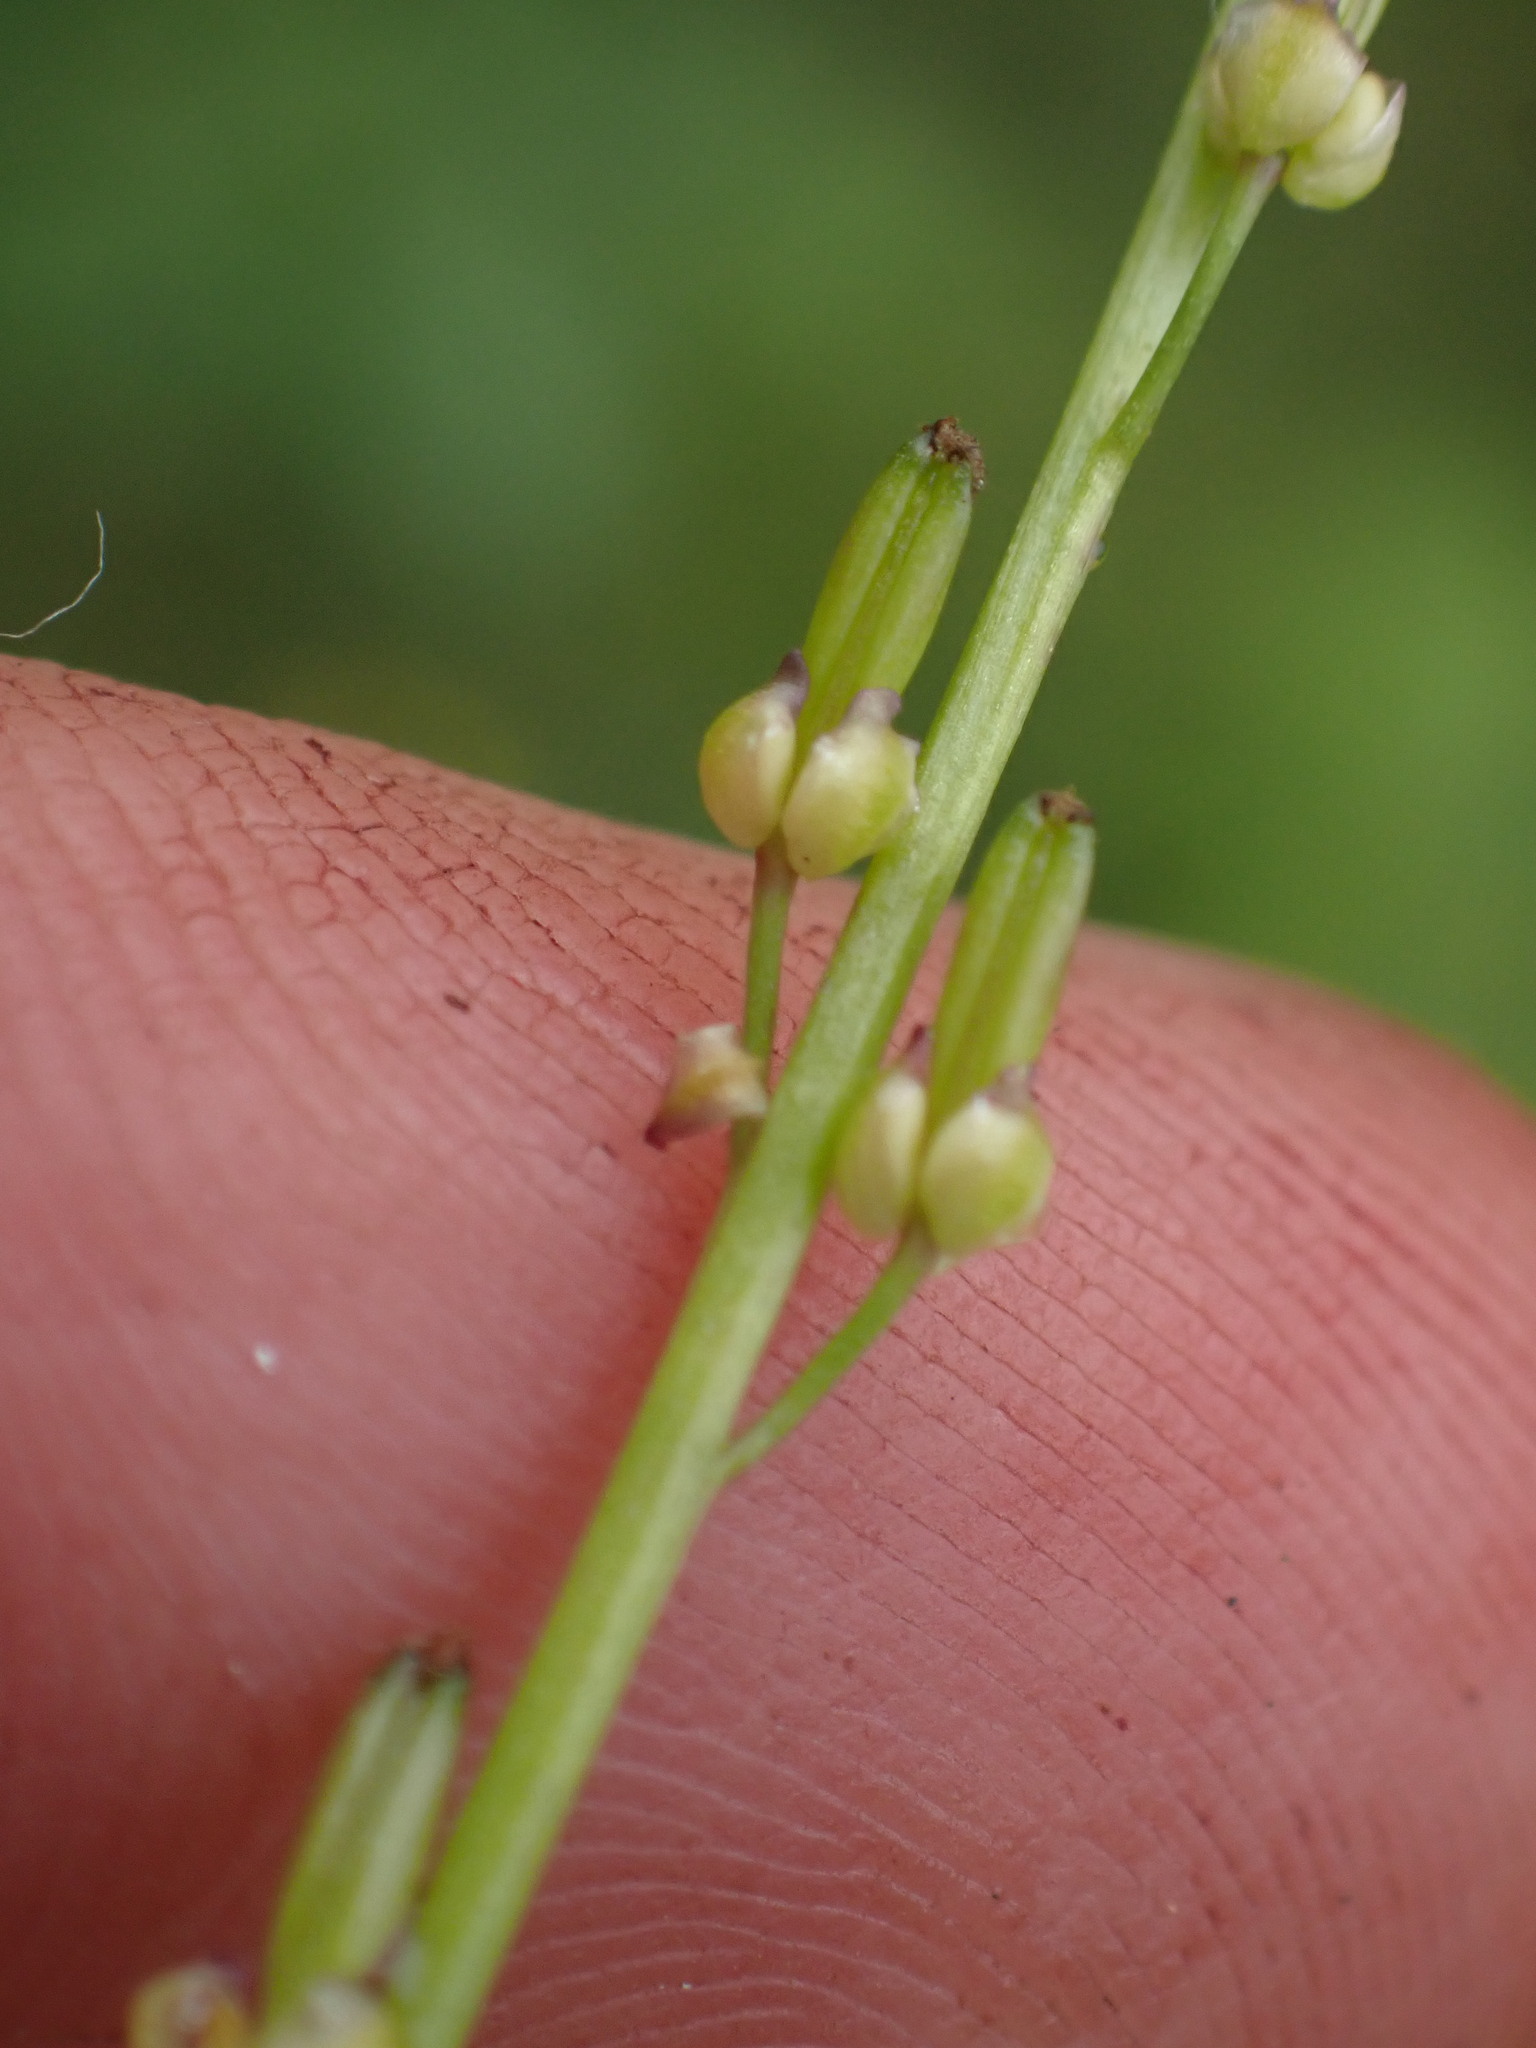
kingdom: Plantae
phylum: Tracheophyta
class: Liliopsida
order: Alismatales
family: Juncaginaceae
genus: Triglochin
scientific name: Triglochin palustris
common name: Marsh arrowgrass
